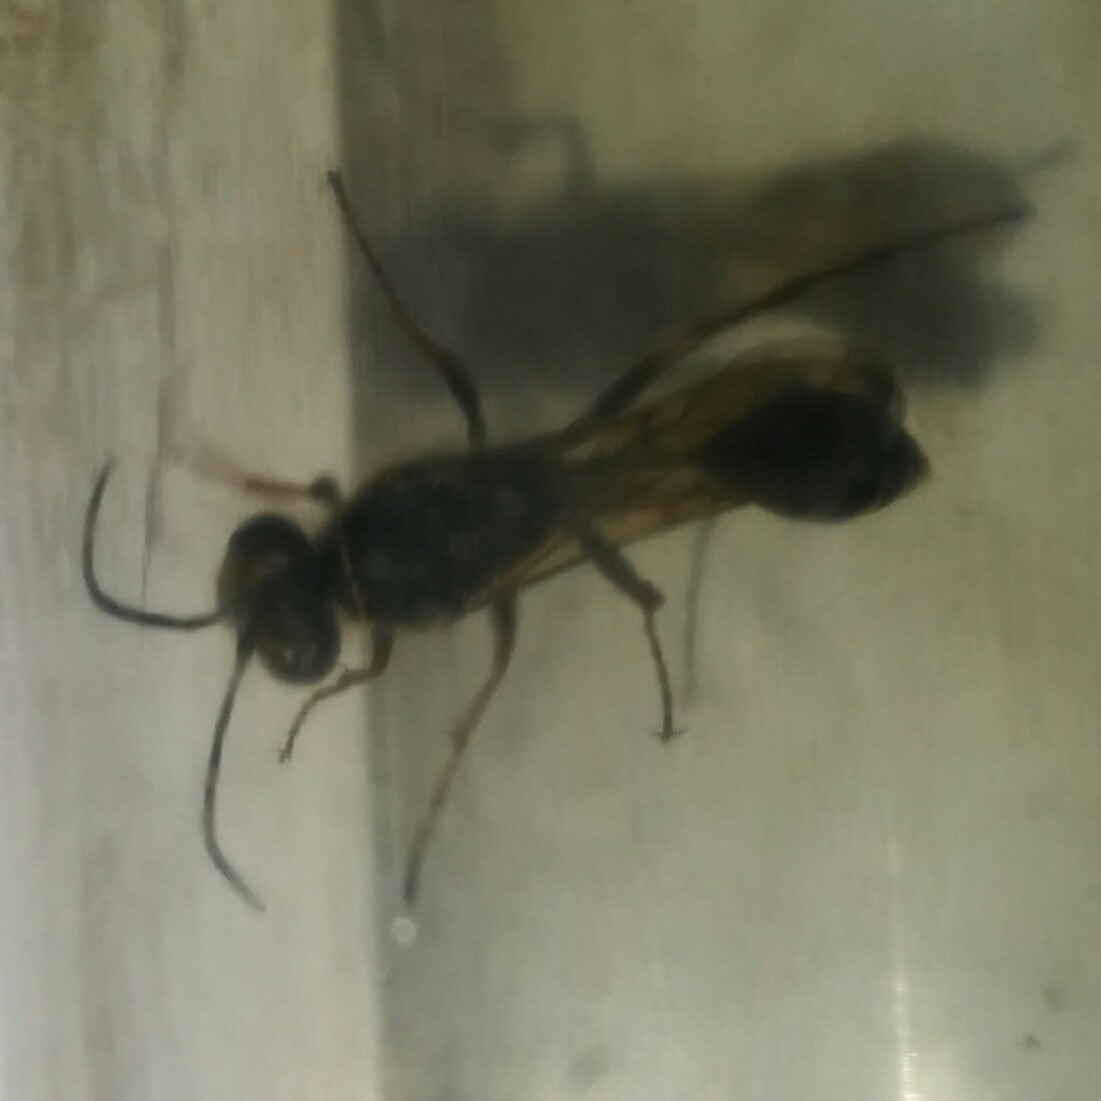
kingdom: Animalia
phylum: Arthropoda
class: Insecta
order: Hymenoptera
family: Sphecidae
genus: Sceliphron
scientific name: Sceliphron curvatum
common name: Pèlopèe
